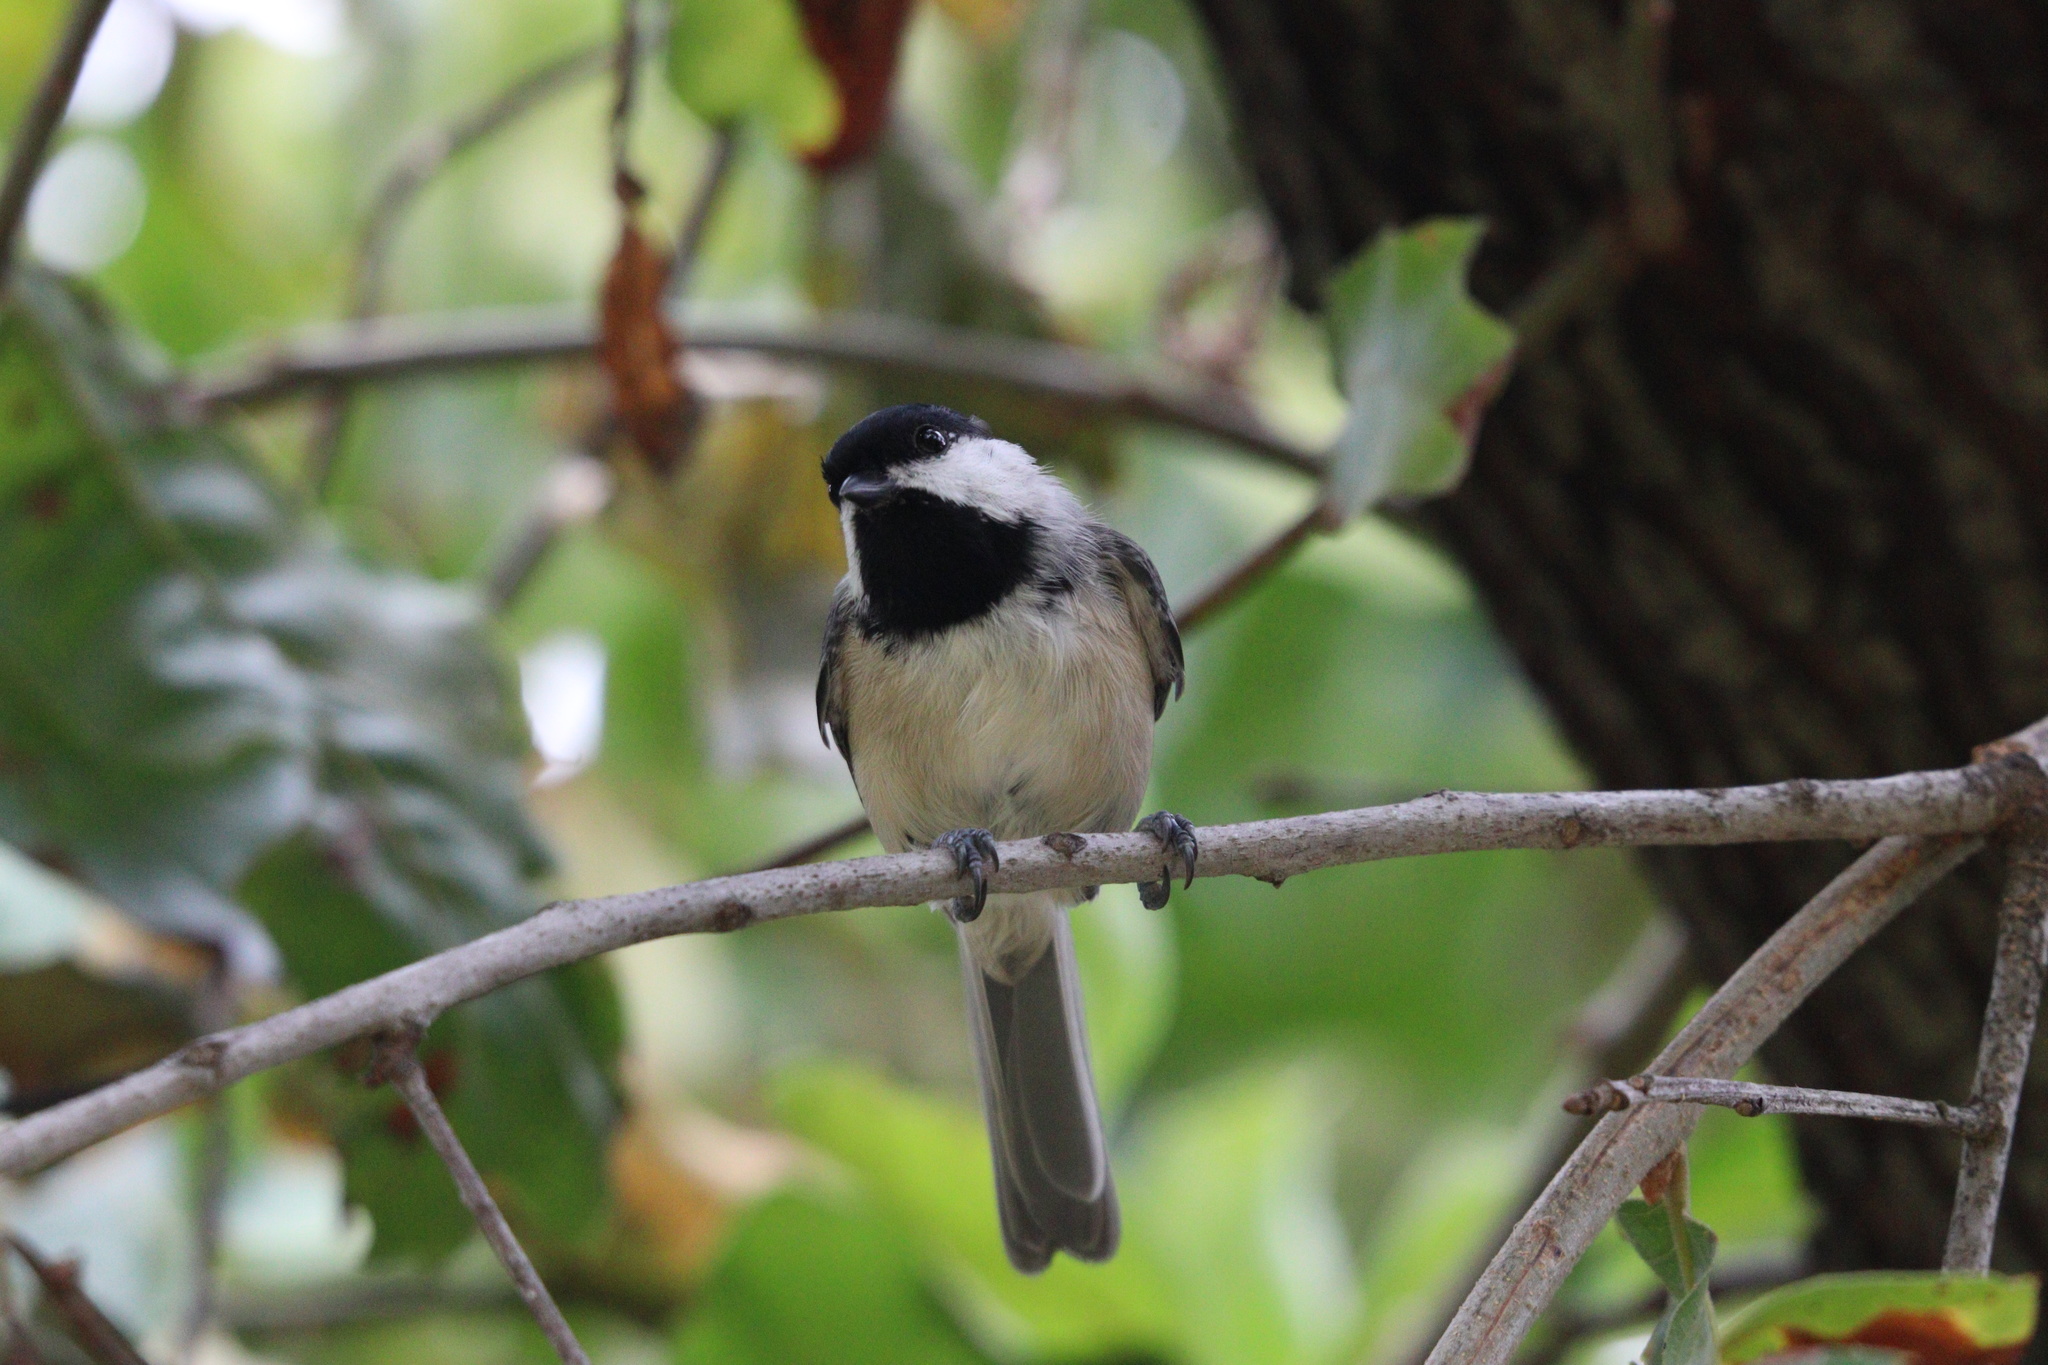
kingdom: Animalia
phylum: Chordata
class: Aves
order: Passeriformes
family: Paridae
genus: Poecile
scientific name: Poecile carolinensis
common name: Carolina chickadee
